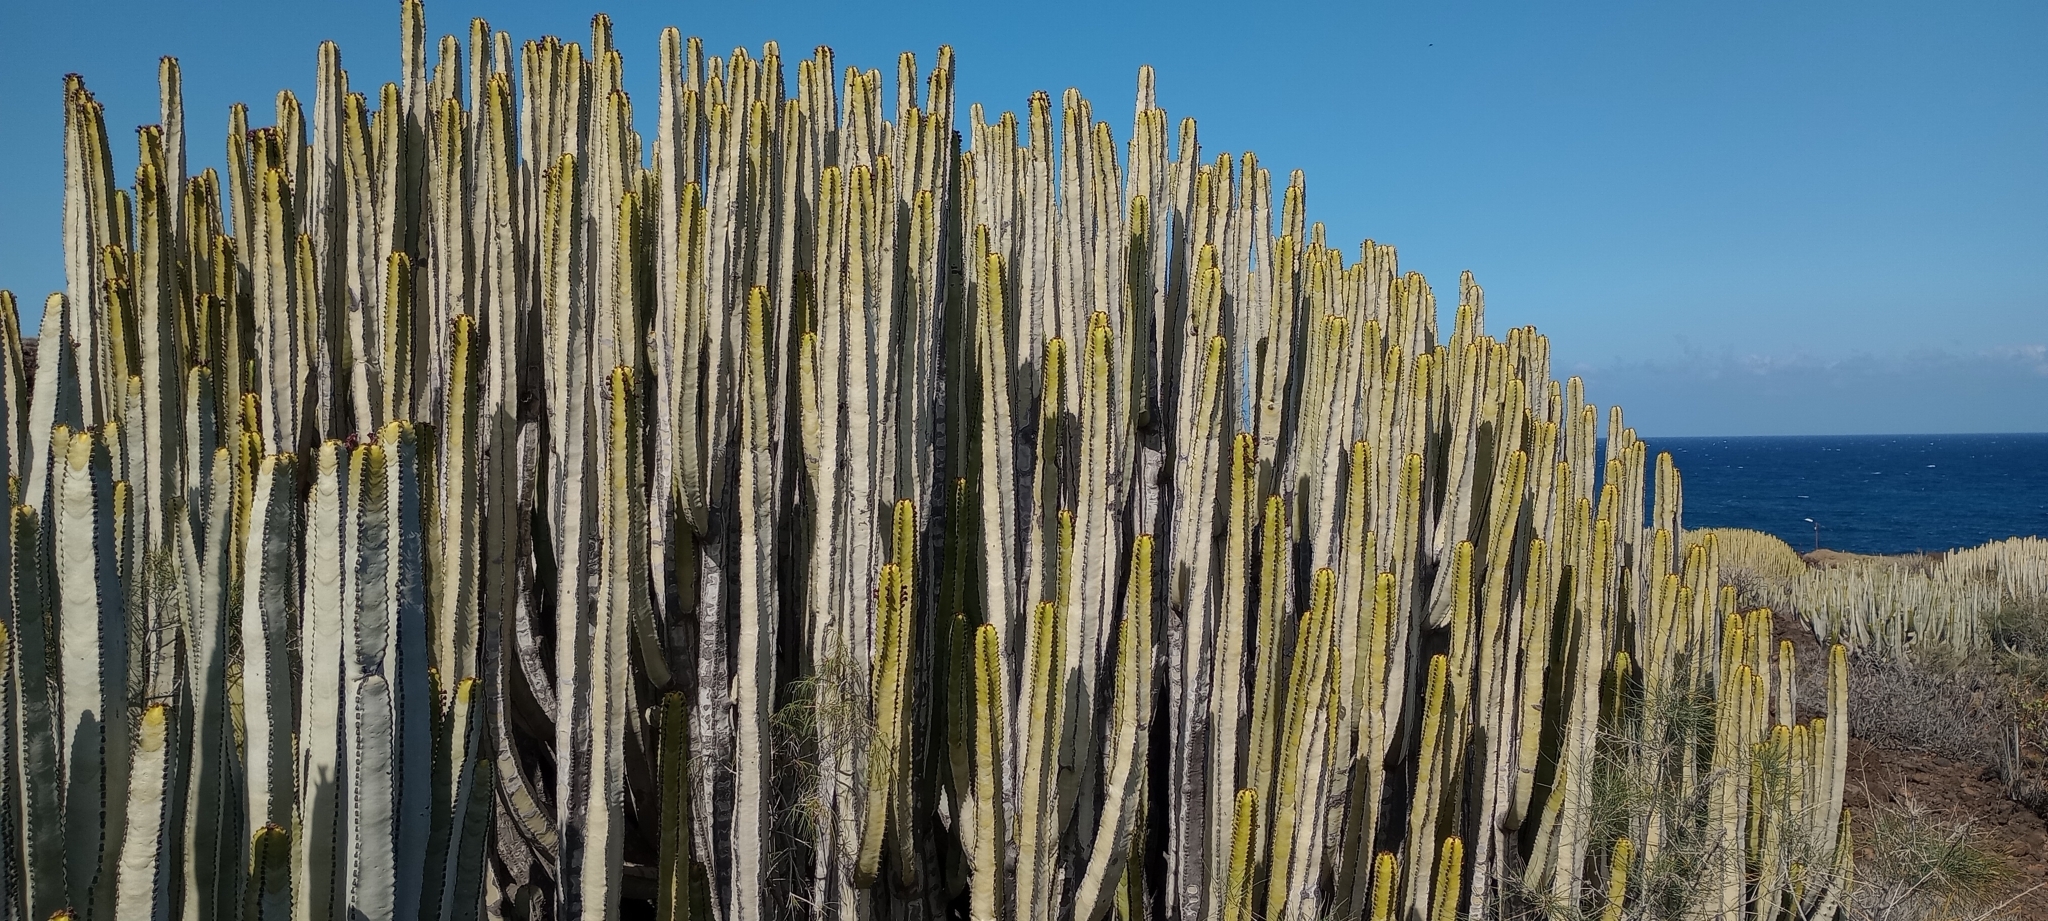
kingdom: Plantae
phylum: Tracheophyta
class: Magnoliopsida
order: Malpighiales
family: Euphorbiaceae
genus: Euphorbia
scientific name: Euphorbia canariensis
